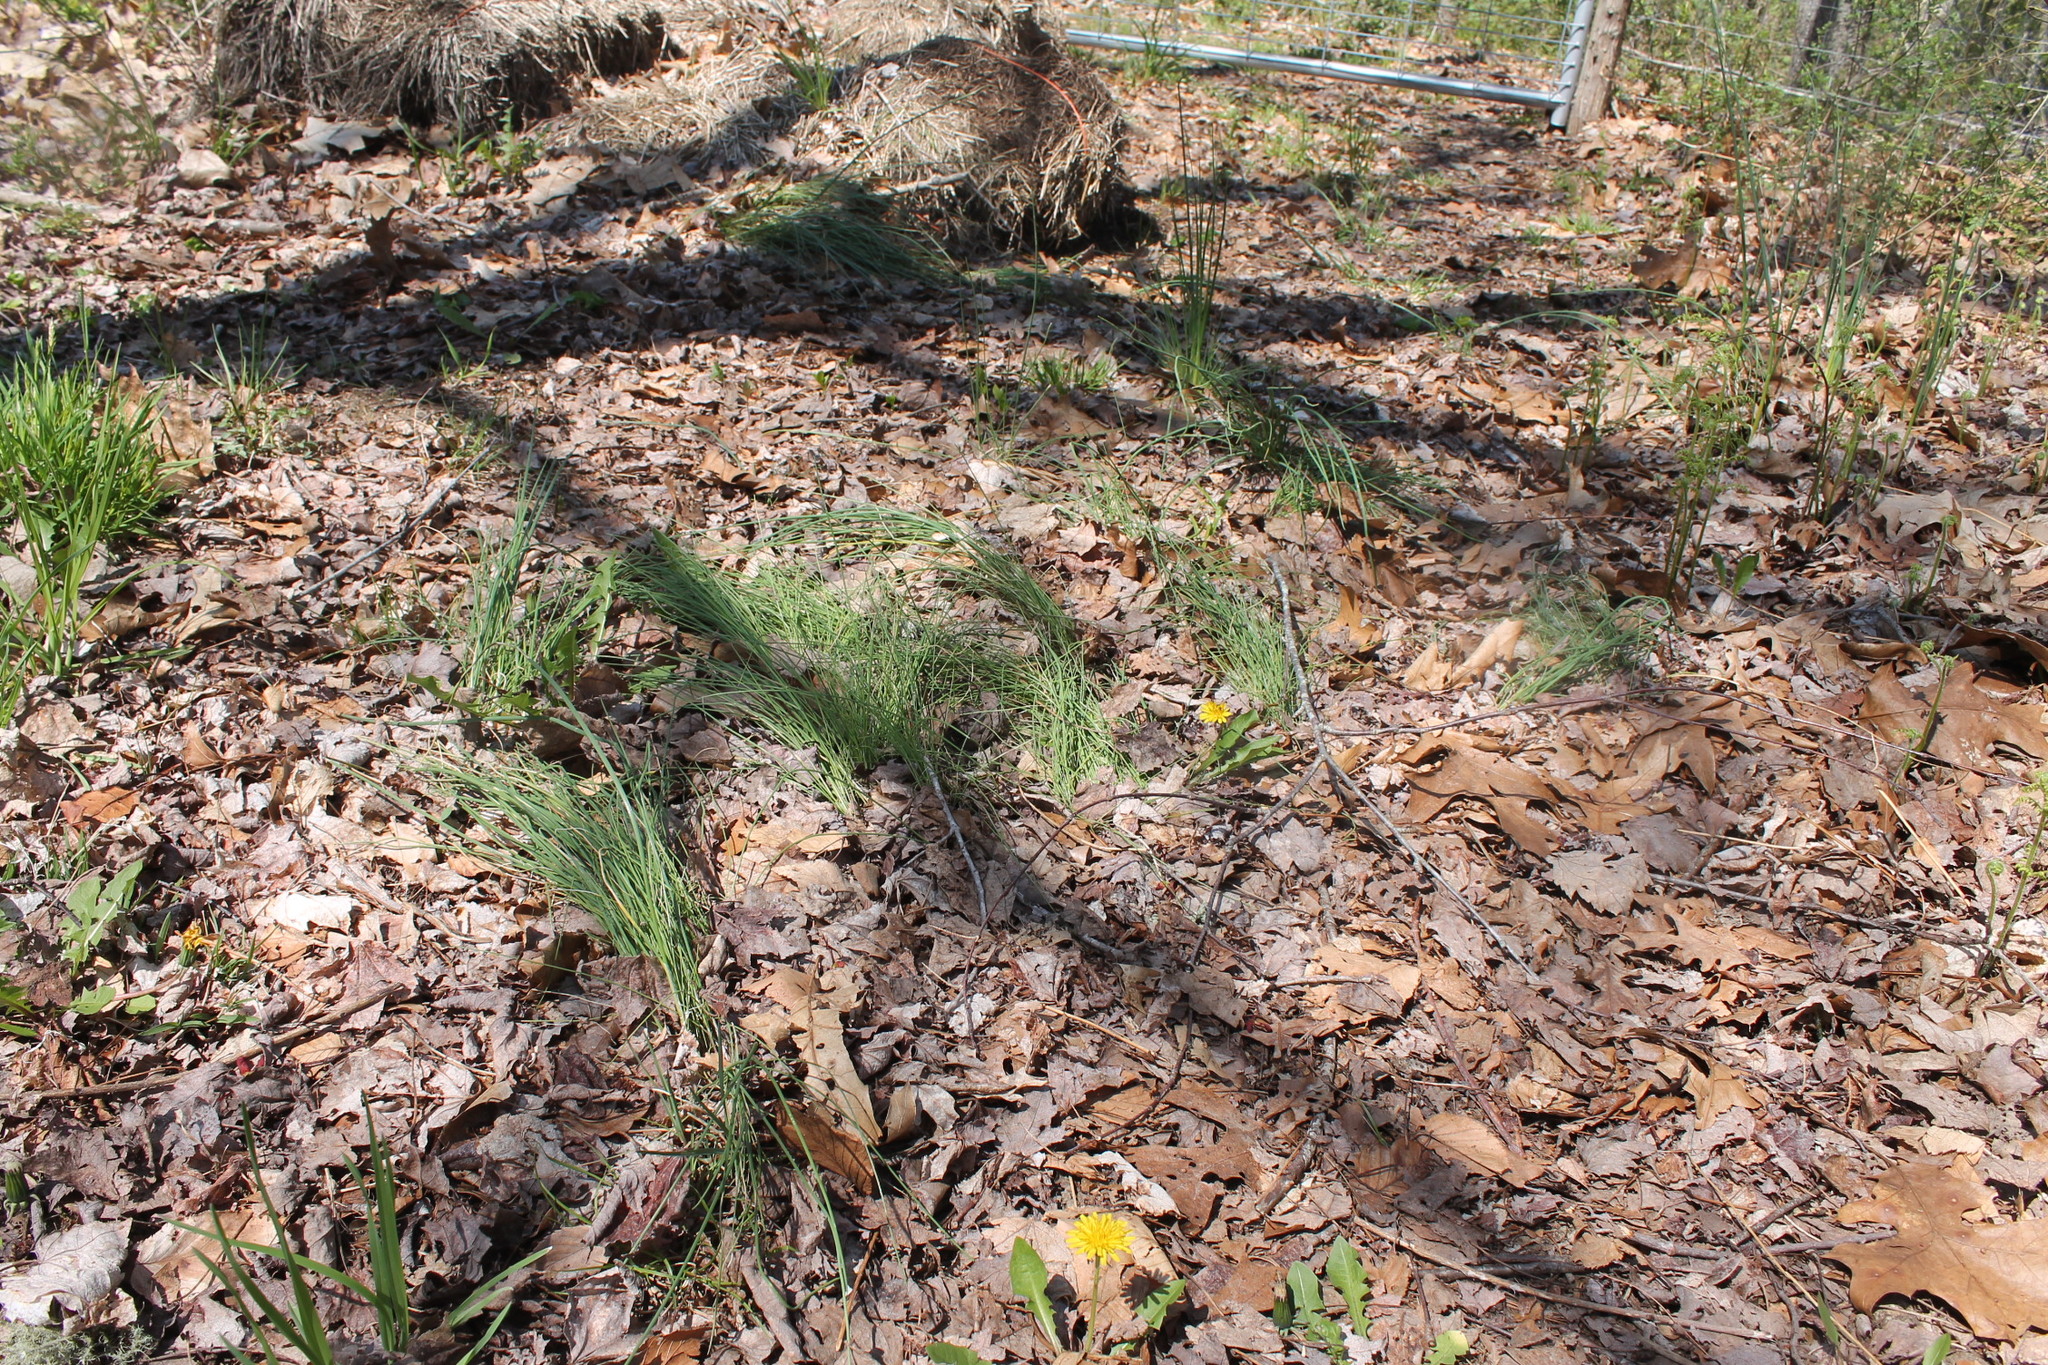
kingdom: Plantae
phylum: Tracheophyta
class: Liliopsida
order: Asparagales
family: Amaryllidaceae
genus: Allium
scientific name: Allium vineale
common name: Crow garlic
